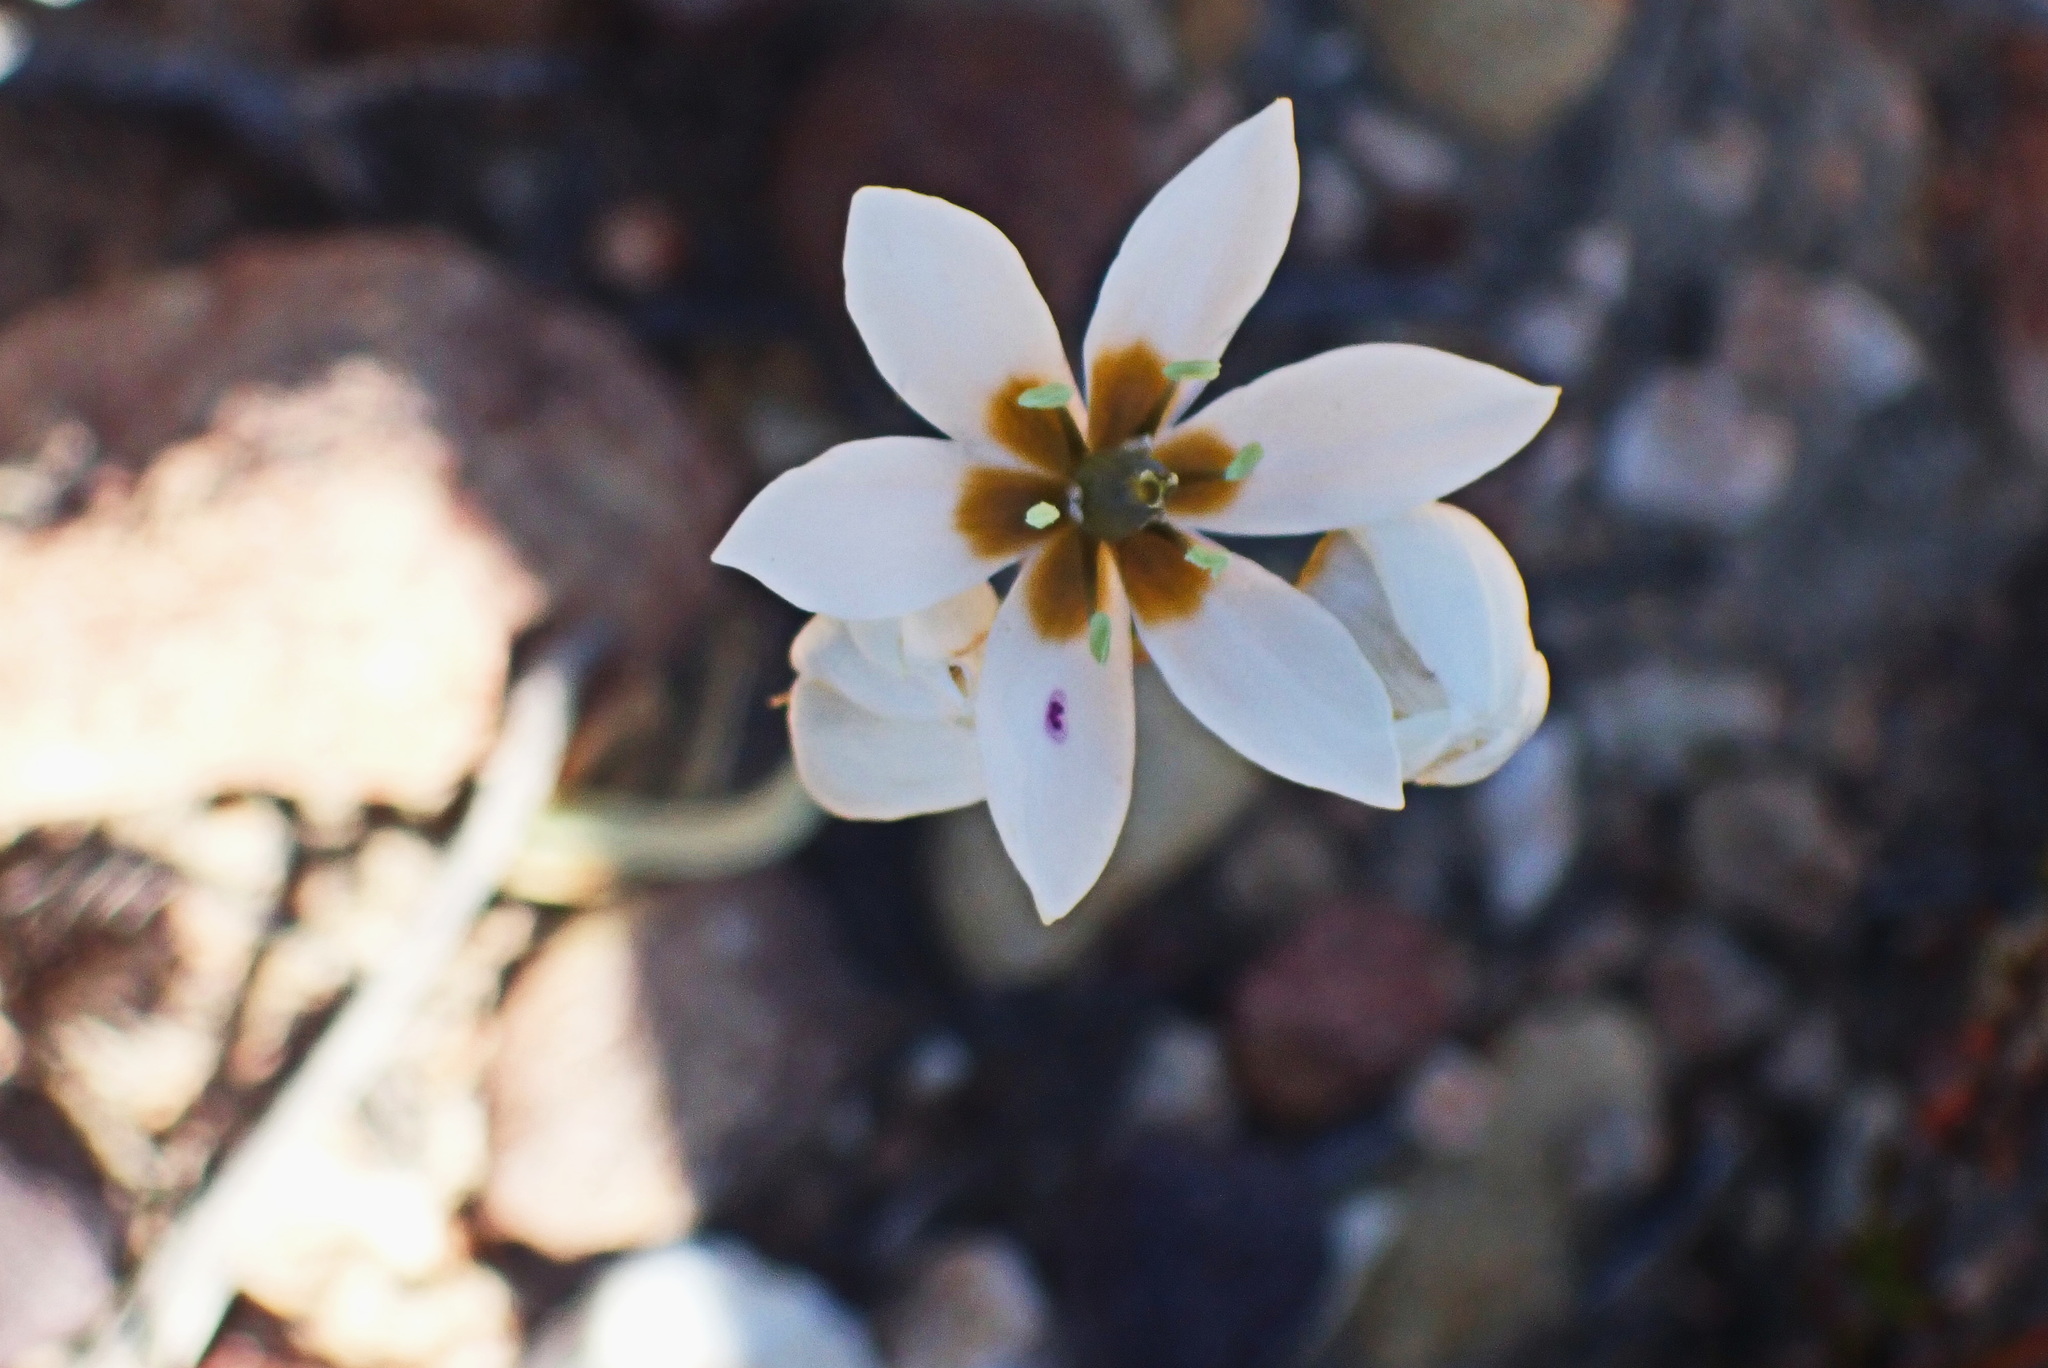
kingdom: Plantae
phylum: Tracheophyta
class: Liliopsida
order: Asparagales
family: Asparagaceae
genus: Ornithogalum
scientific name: Ornithogalum dubium
